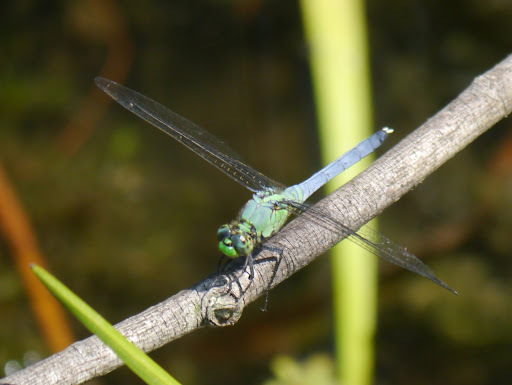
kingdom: Animalia
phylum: Arthropoda
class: Insecta
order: Odonata
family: Libellulidae
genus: Erythemis
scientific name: Erythemis simplicicollis
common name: Eastern pondhawk
